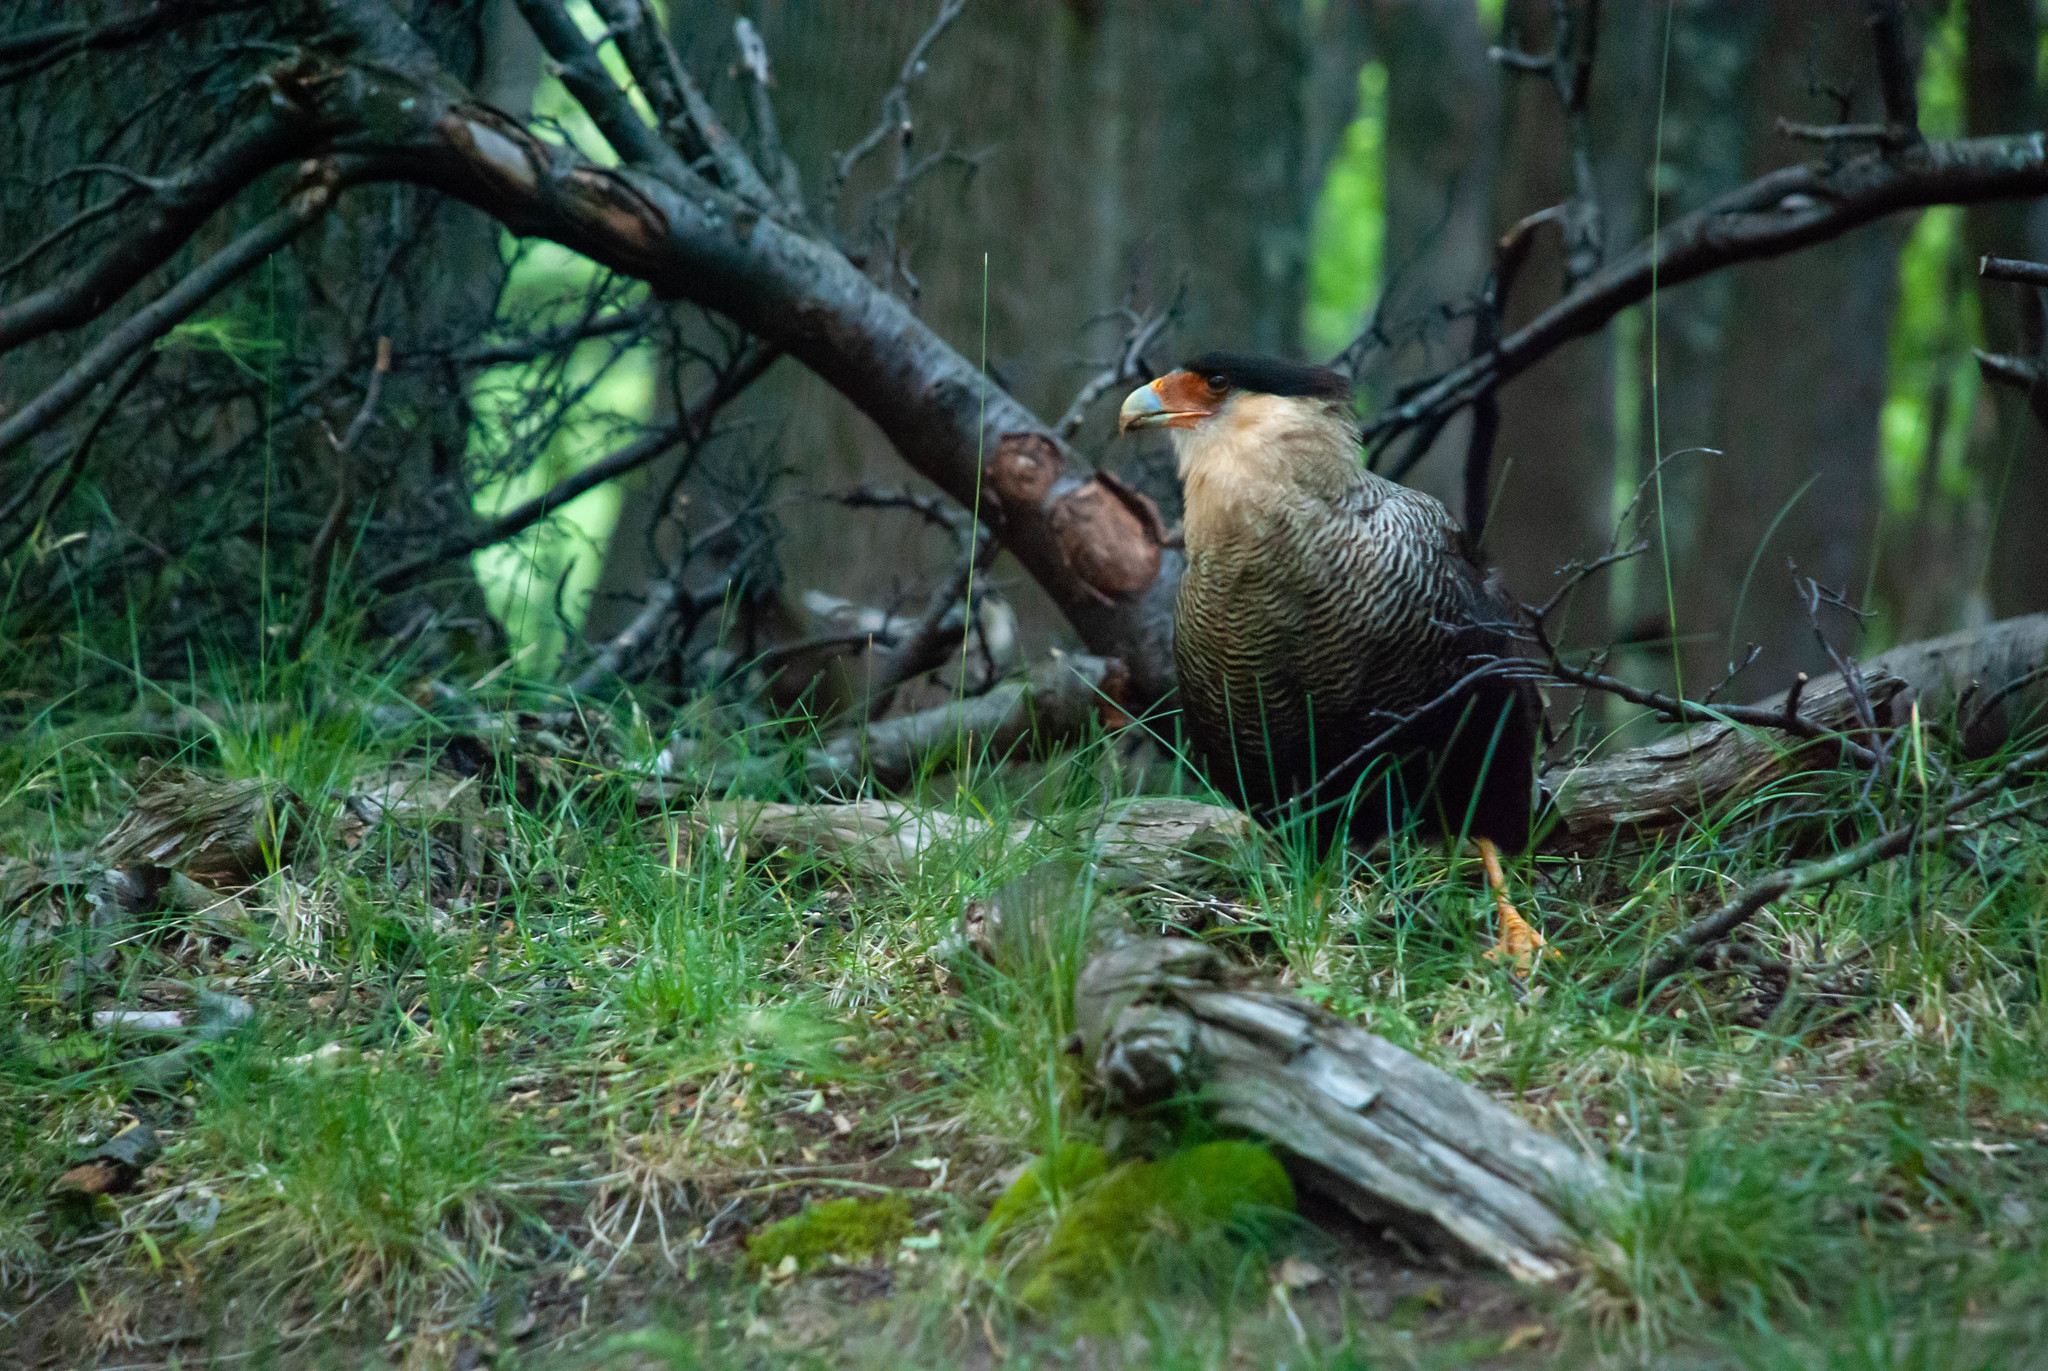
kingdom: Animalia
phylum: Chordata
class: Aves
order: Falconiformes
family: Falconidae
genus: Caracara
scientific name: Caracara plancus
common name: Southern caracara
